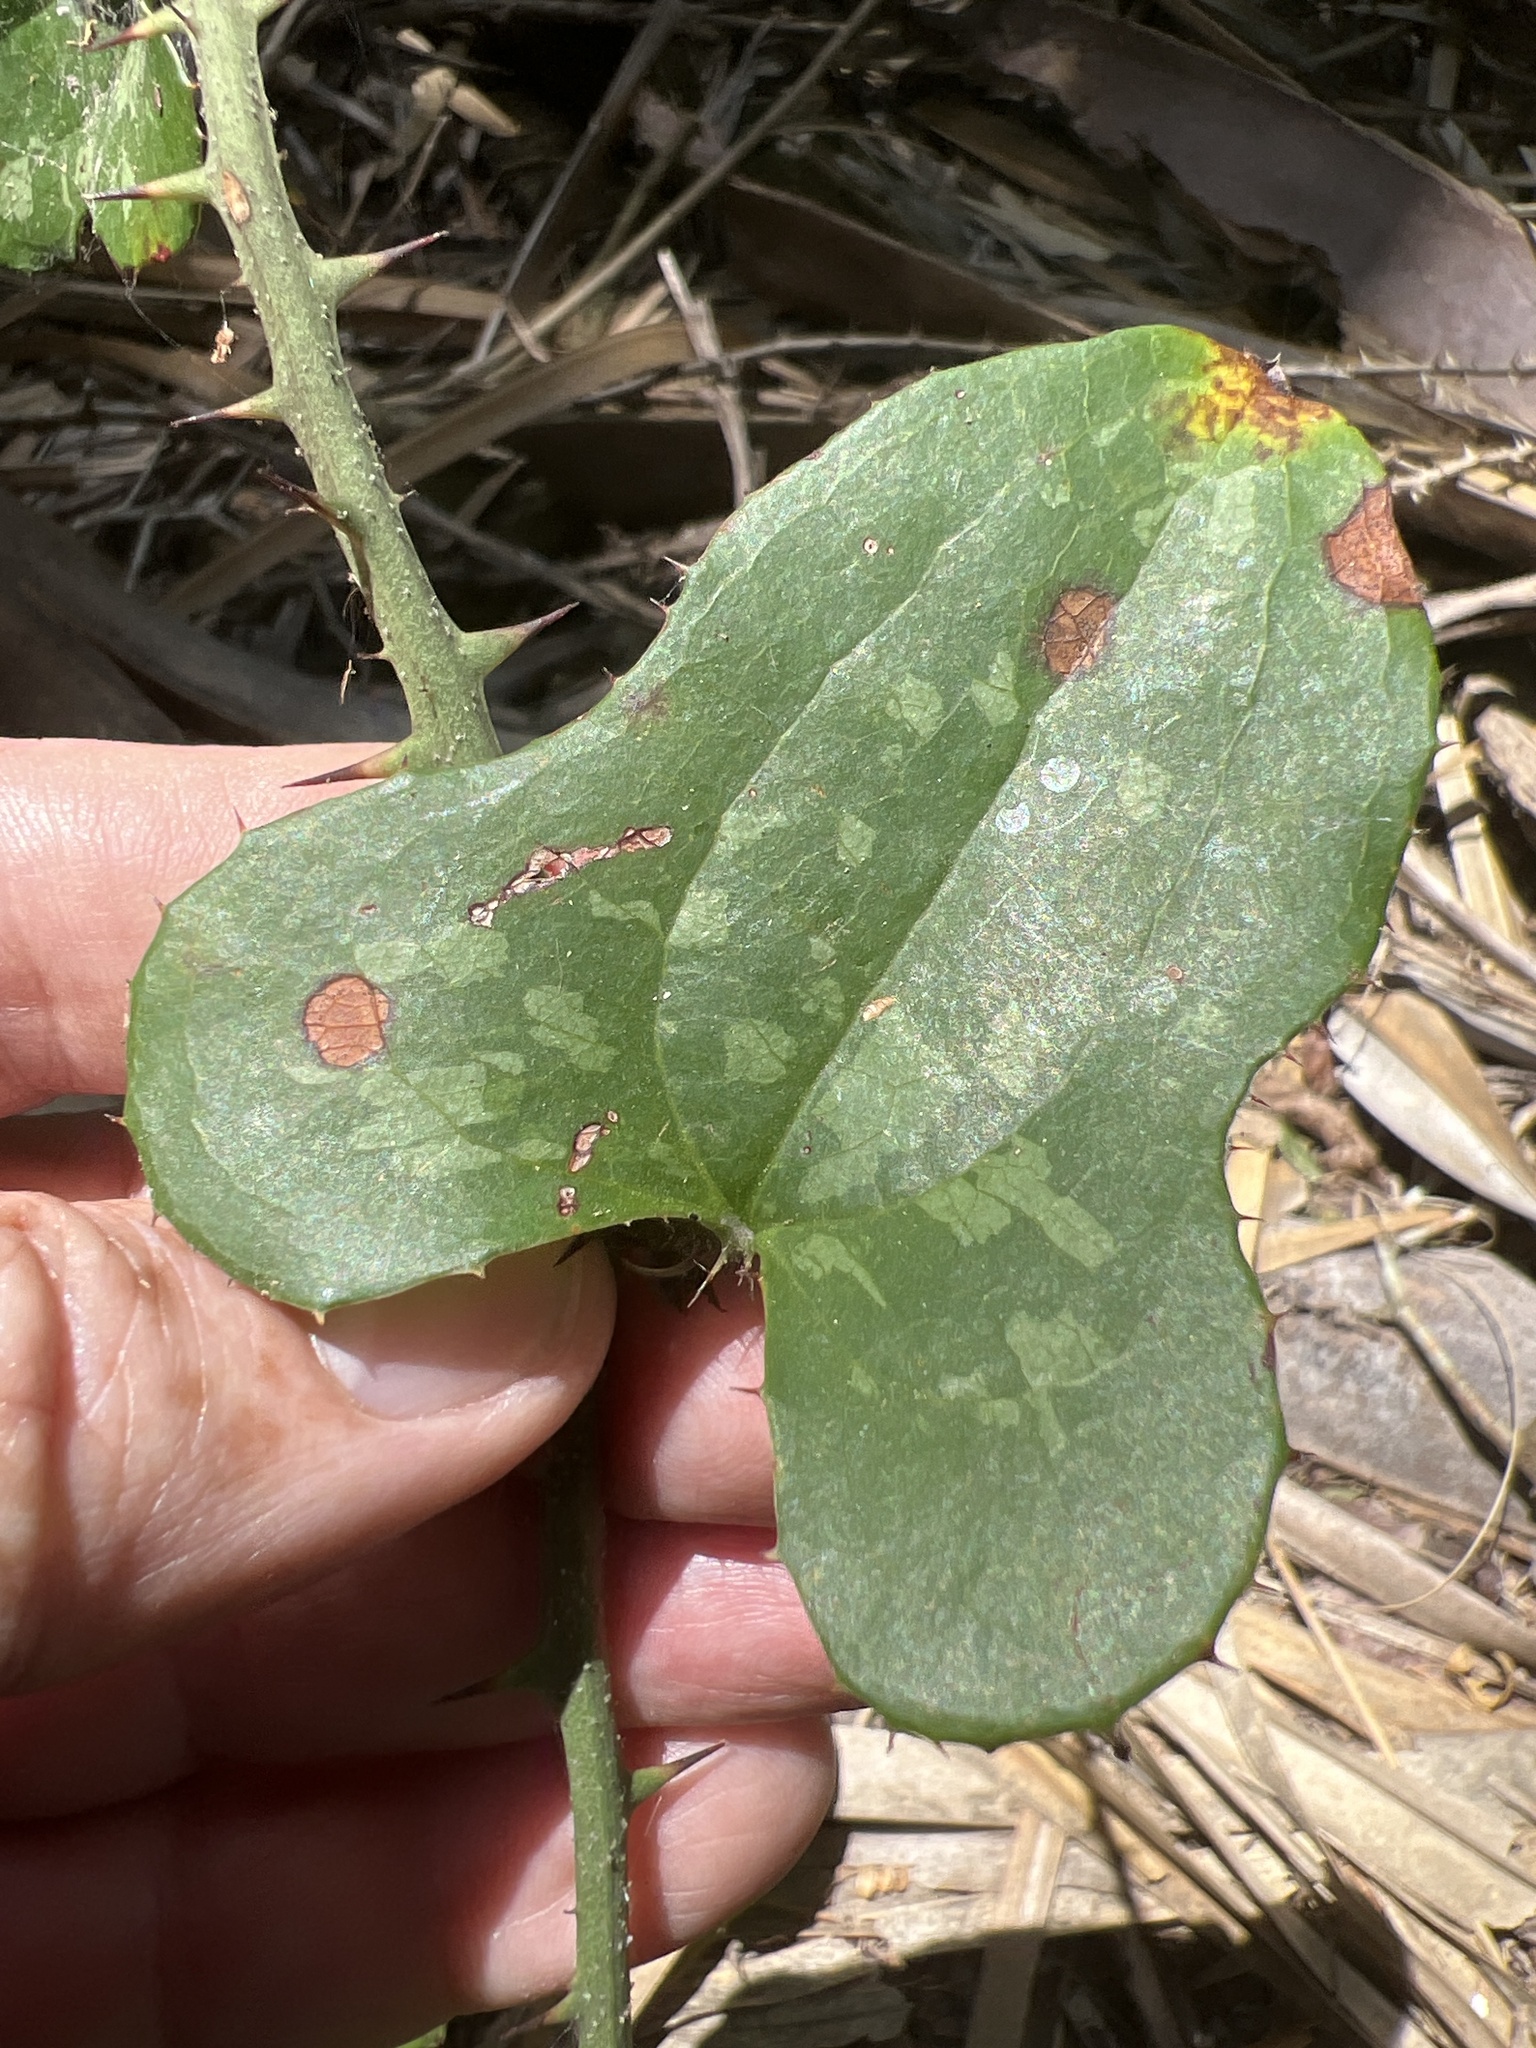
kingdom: Plantae
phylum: Tracheophyta
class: Liliopsida
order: Liliales
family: Smilacaceae
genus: Smilax
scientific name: Smilax bona-nox
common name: Catbrier
